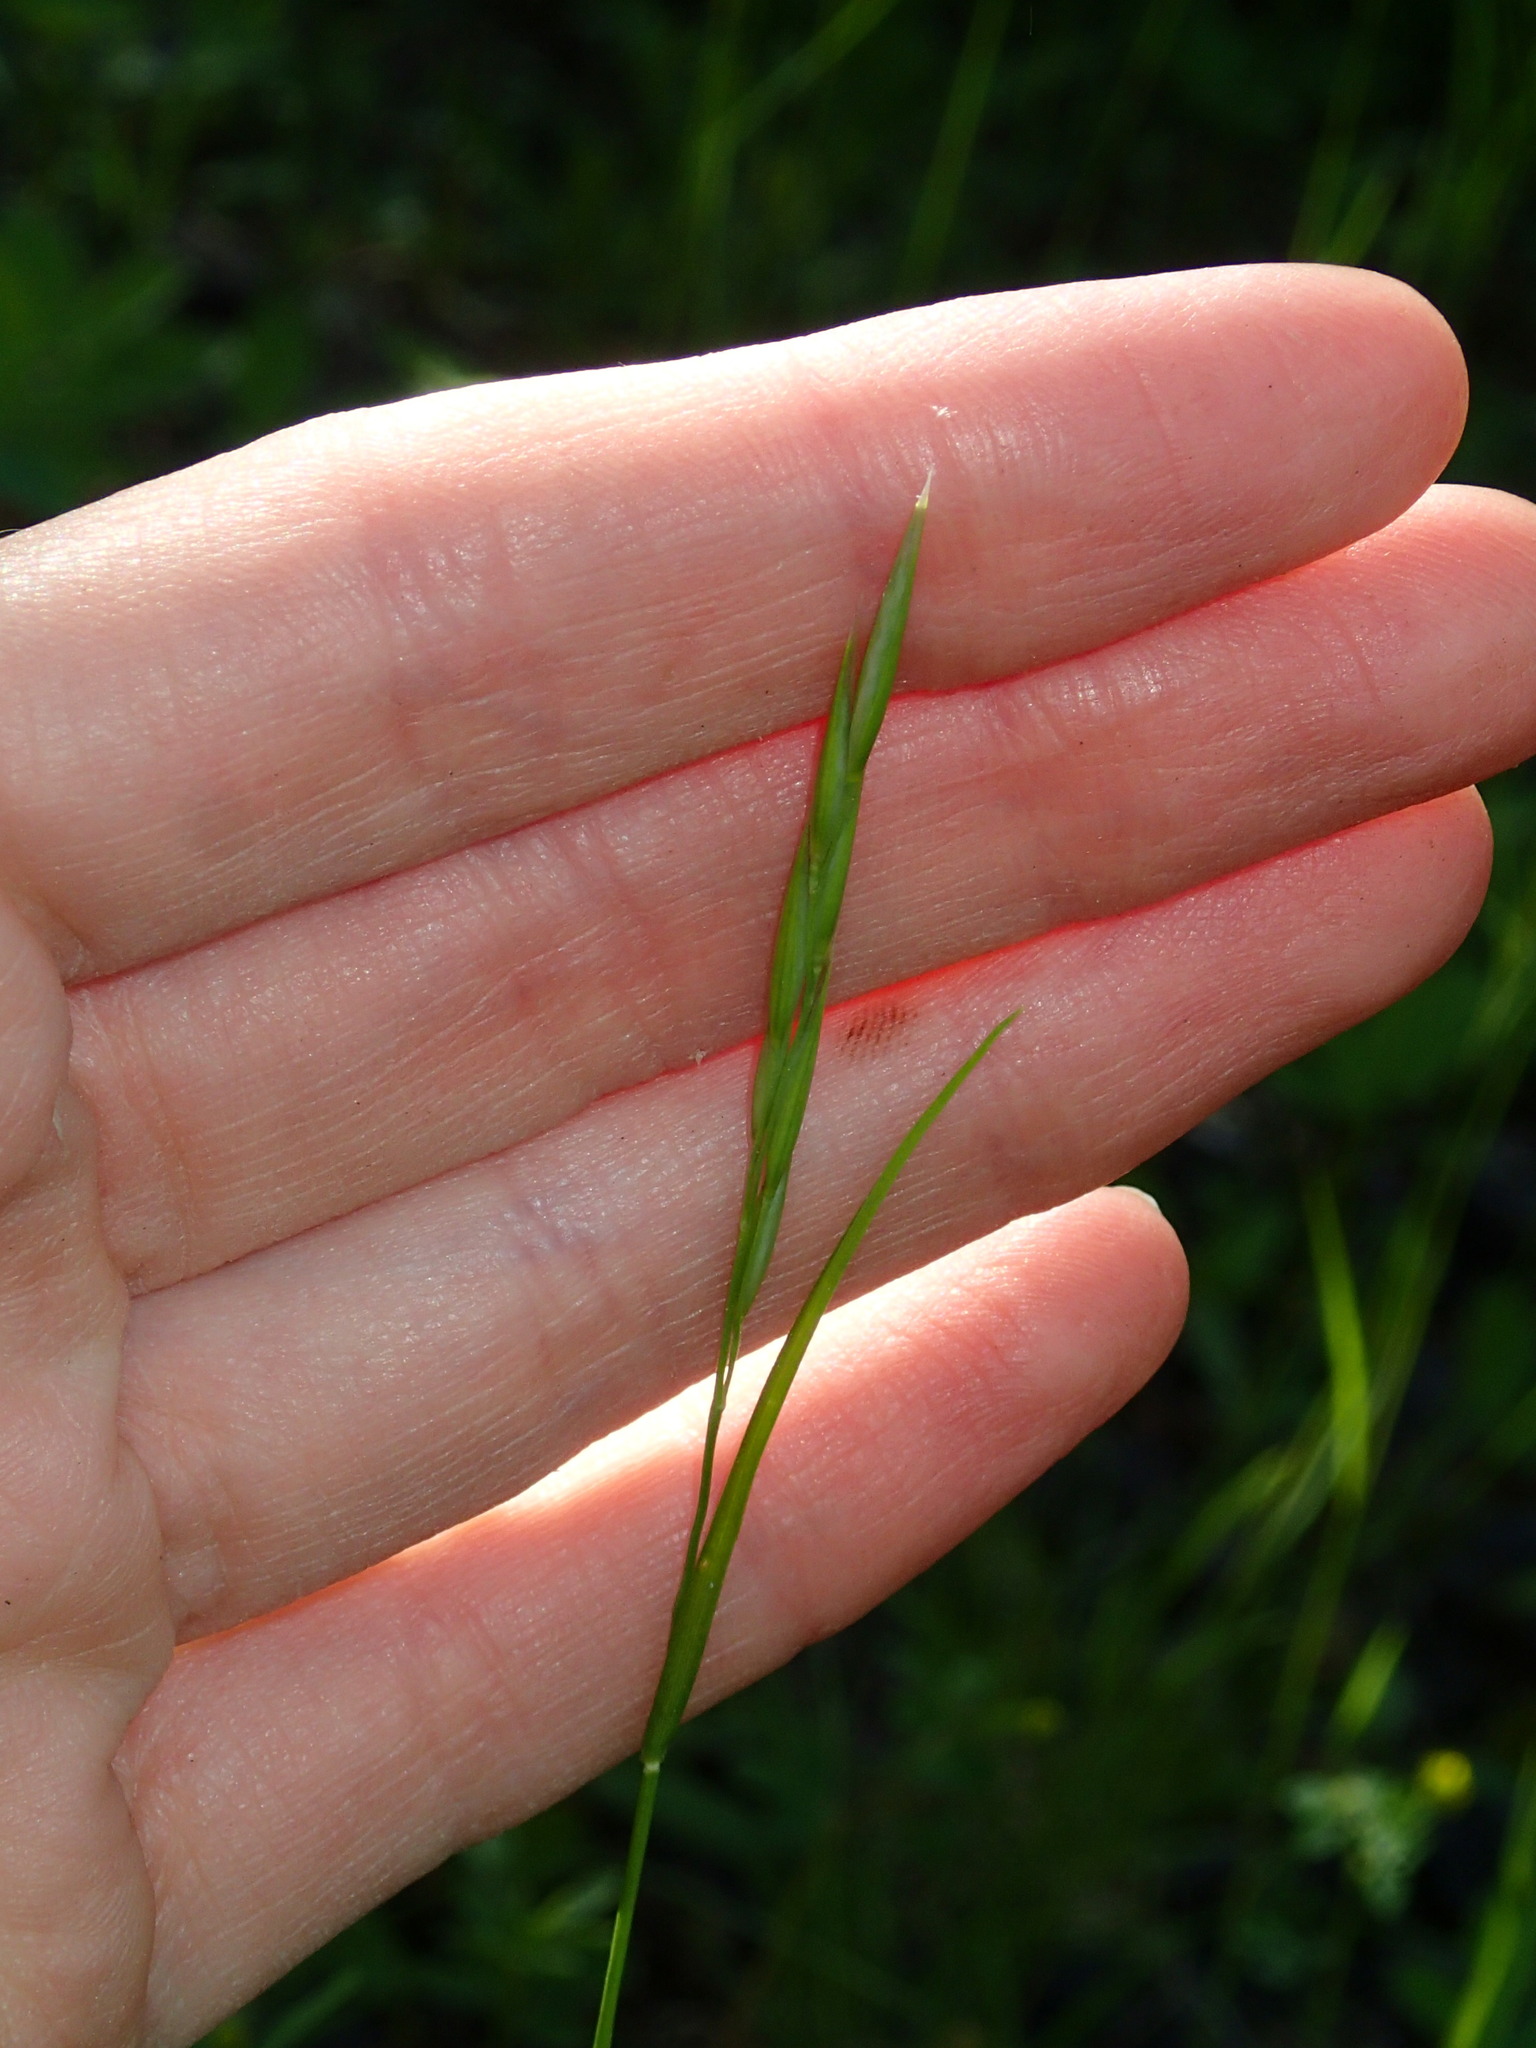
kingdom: Plantae
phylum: Tracheophyta
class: Liliopsida
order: Poales
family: Poaceae
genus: Danthonia
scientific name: Danthonia spicata
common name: Common wild oatgrass
